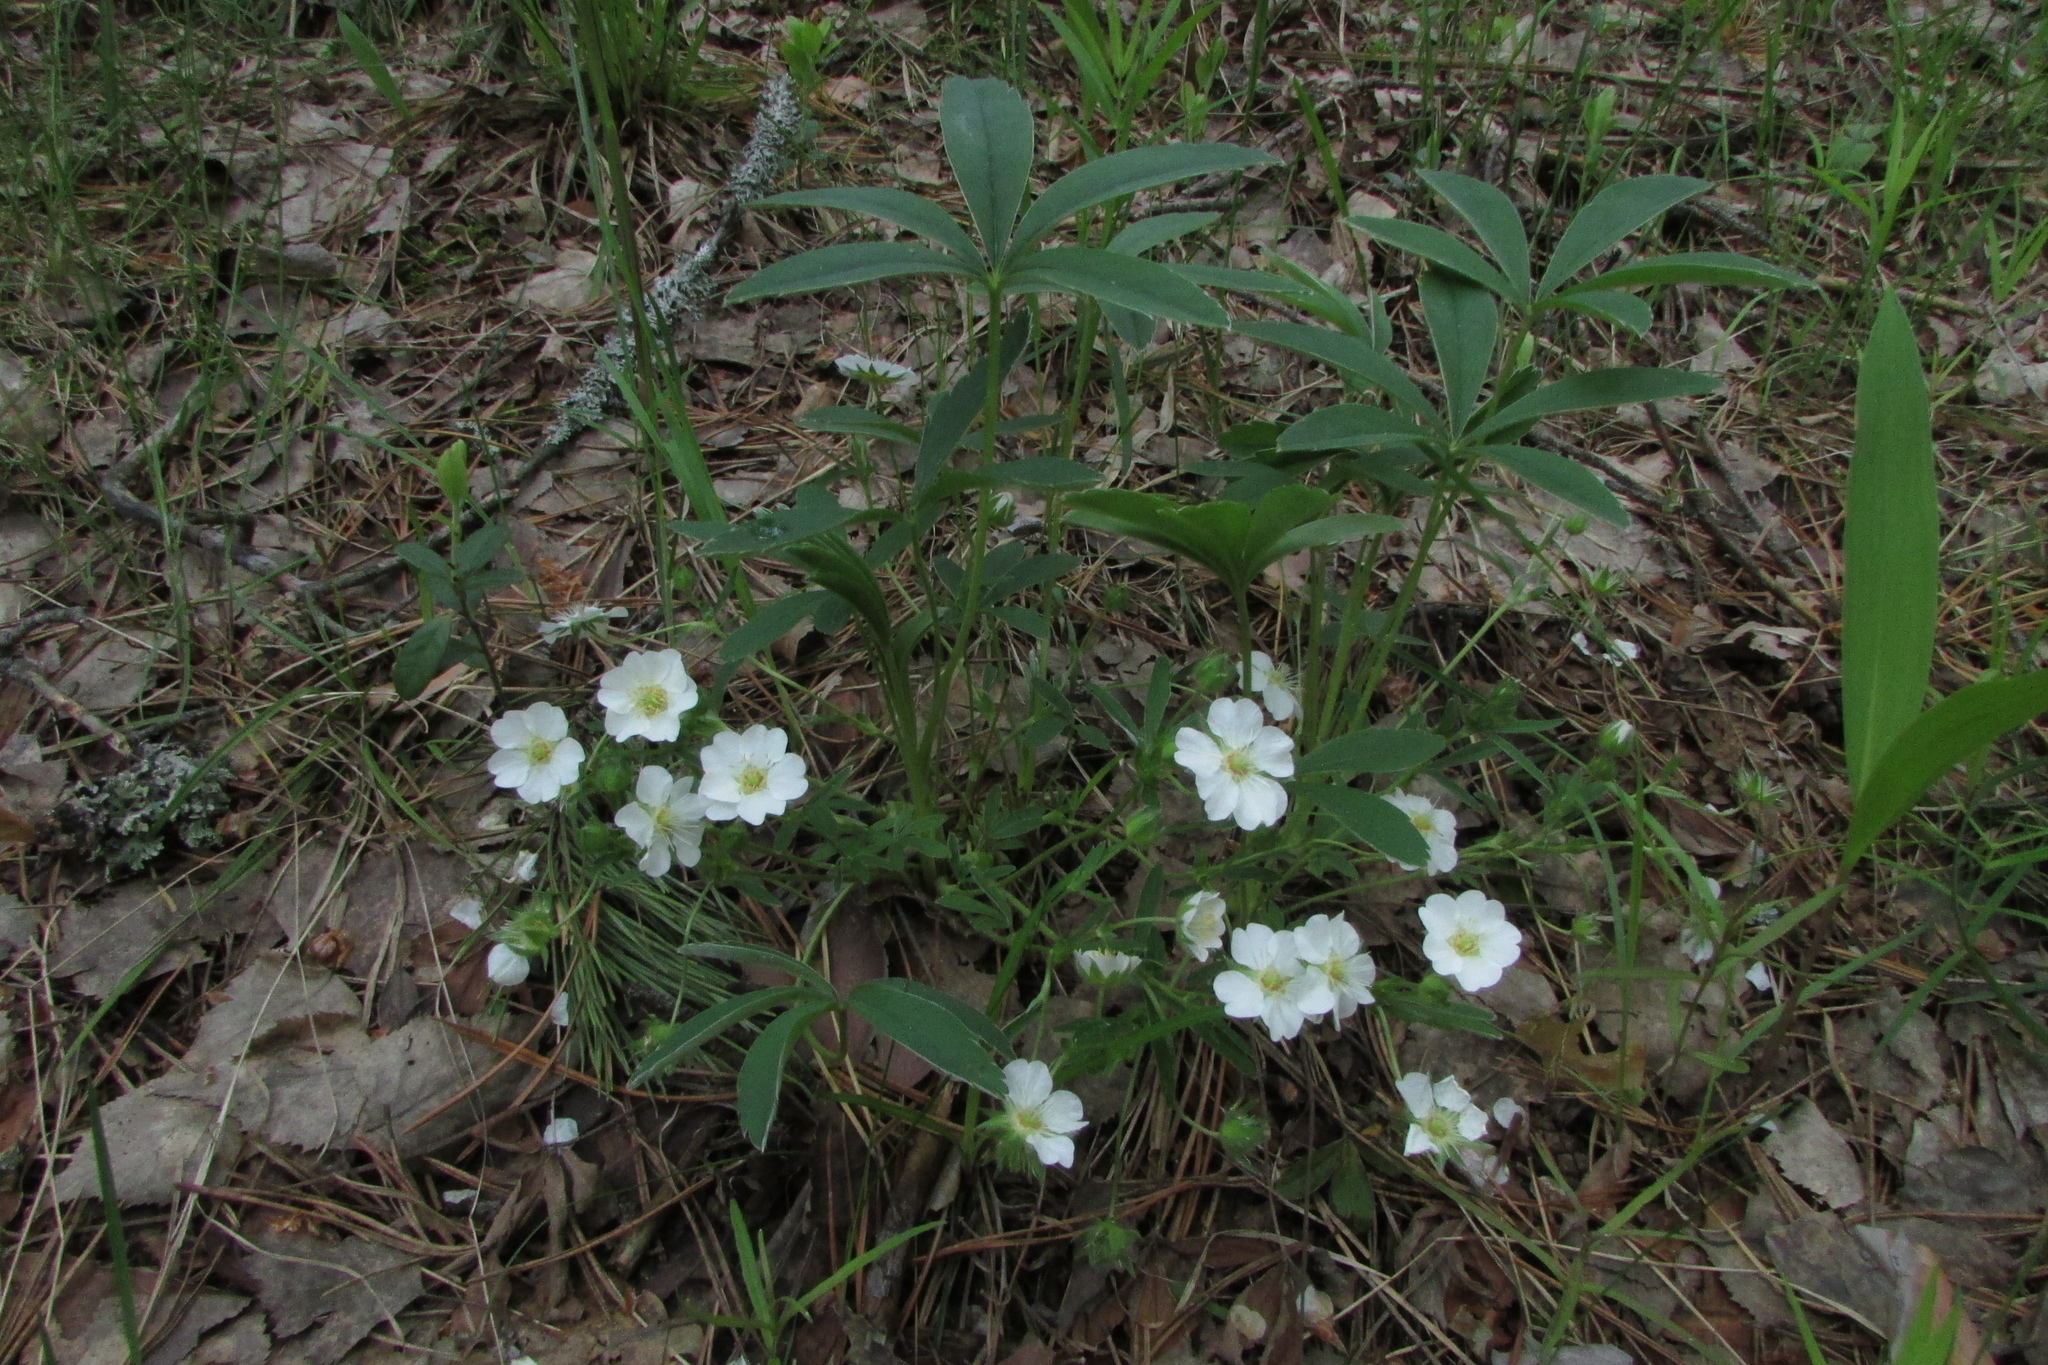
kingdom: Plantae
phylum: Tracheophyta
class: Magnoliopsida
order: Rosales
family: Rosaceae
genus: Potentilla
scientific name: Potentilla alba
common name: White cinquefoil
